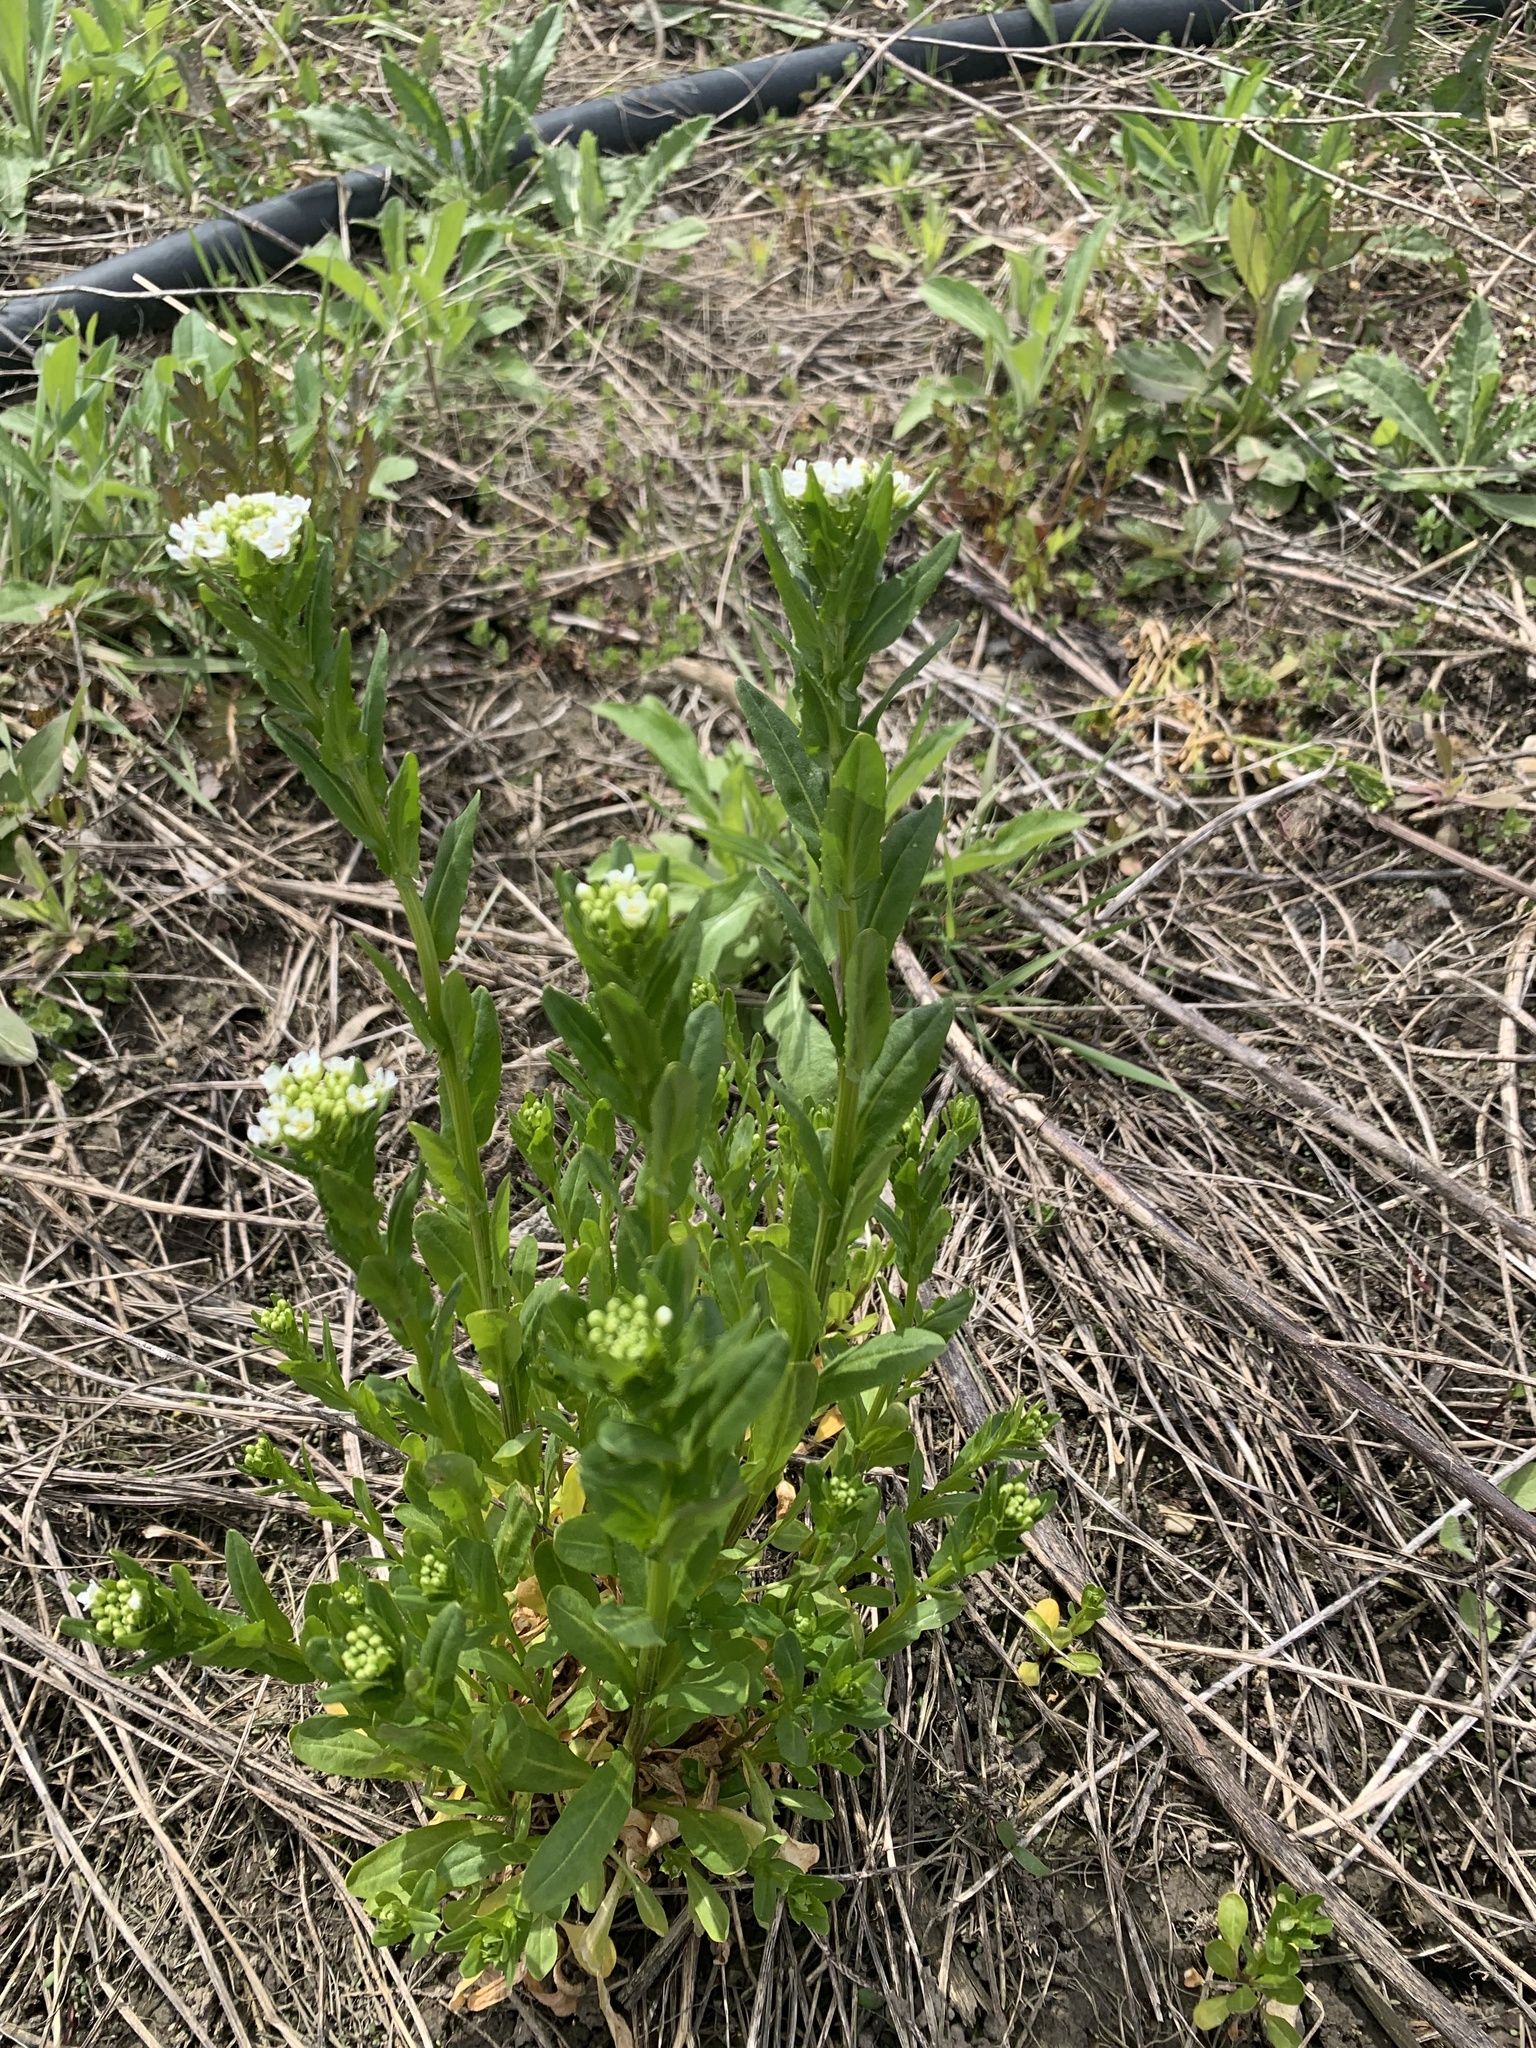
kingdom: Plantae
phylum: Tracheophyta
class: Magnoliopsida
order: Brassicales
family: Brassicaceae
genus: Thlaspi
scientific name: Thlaspi arvense
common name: Field pennycress
